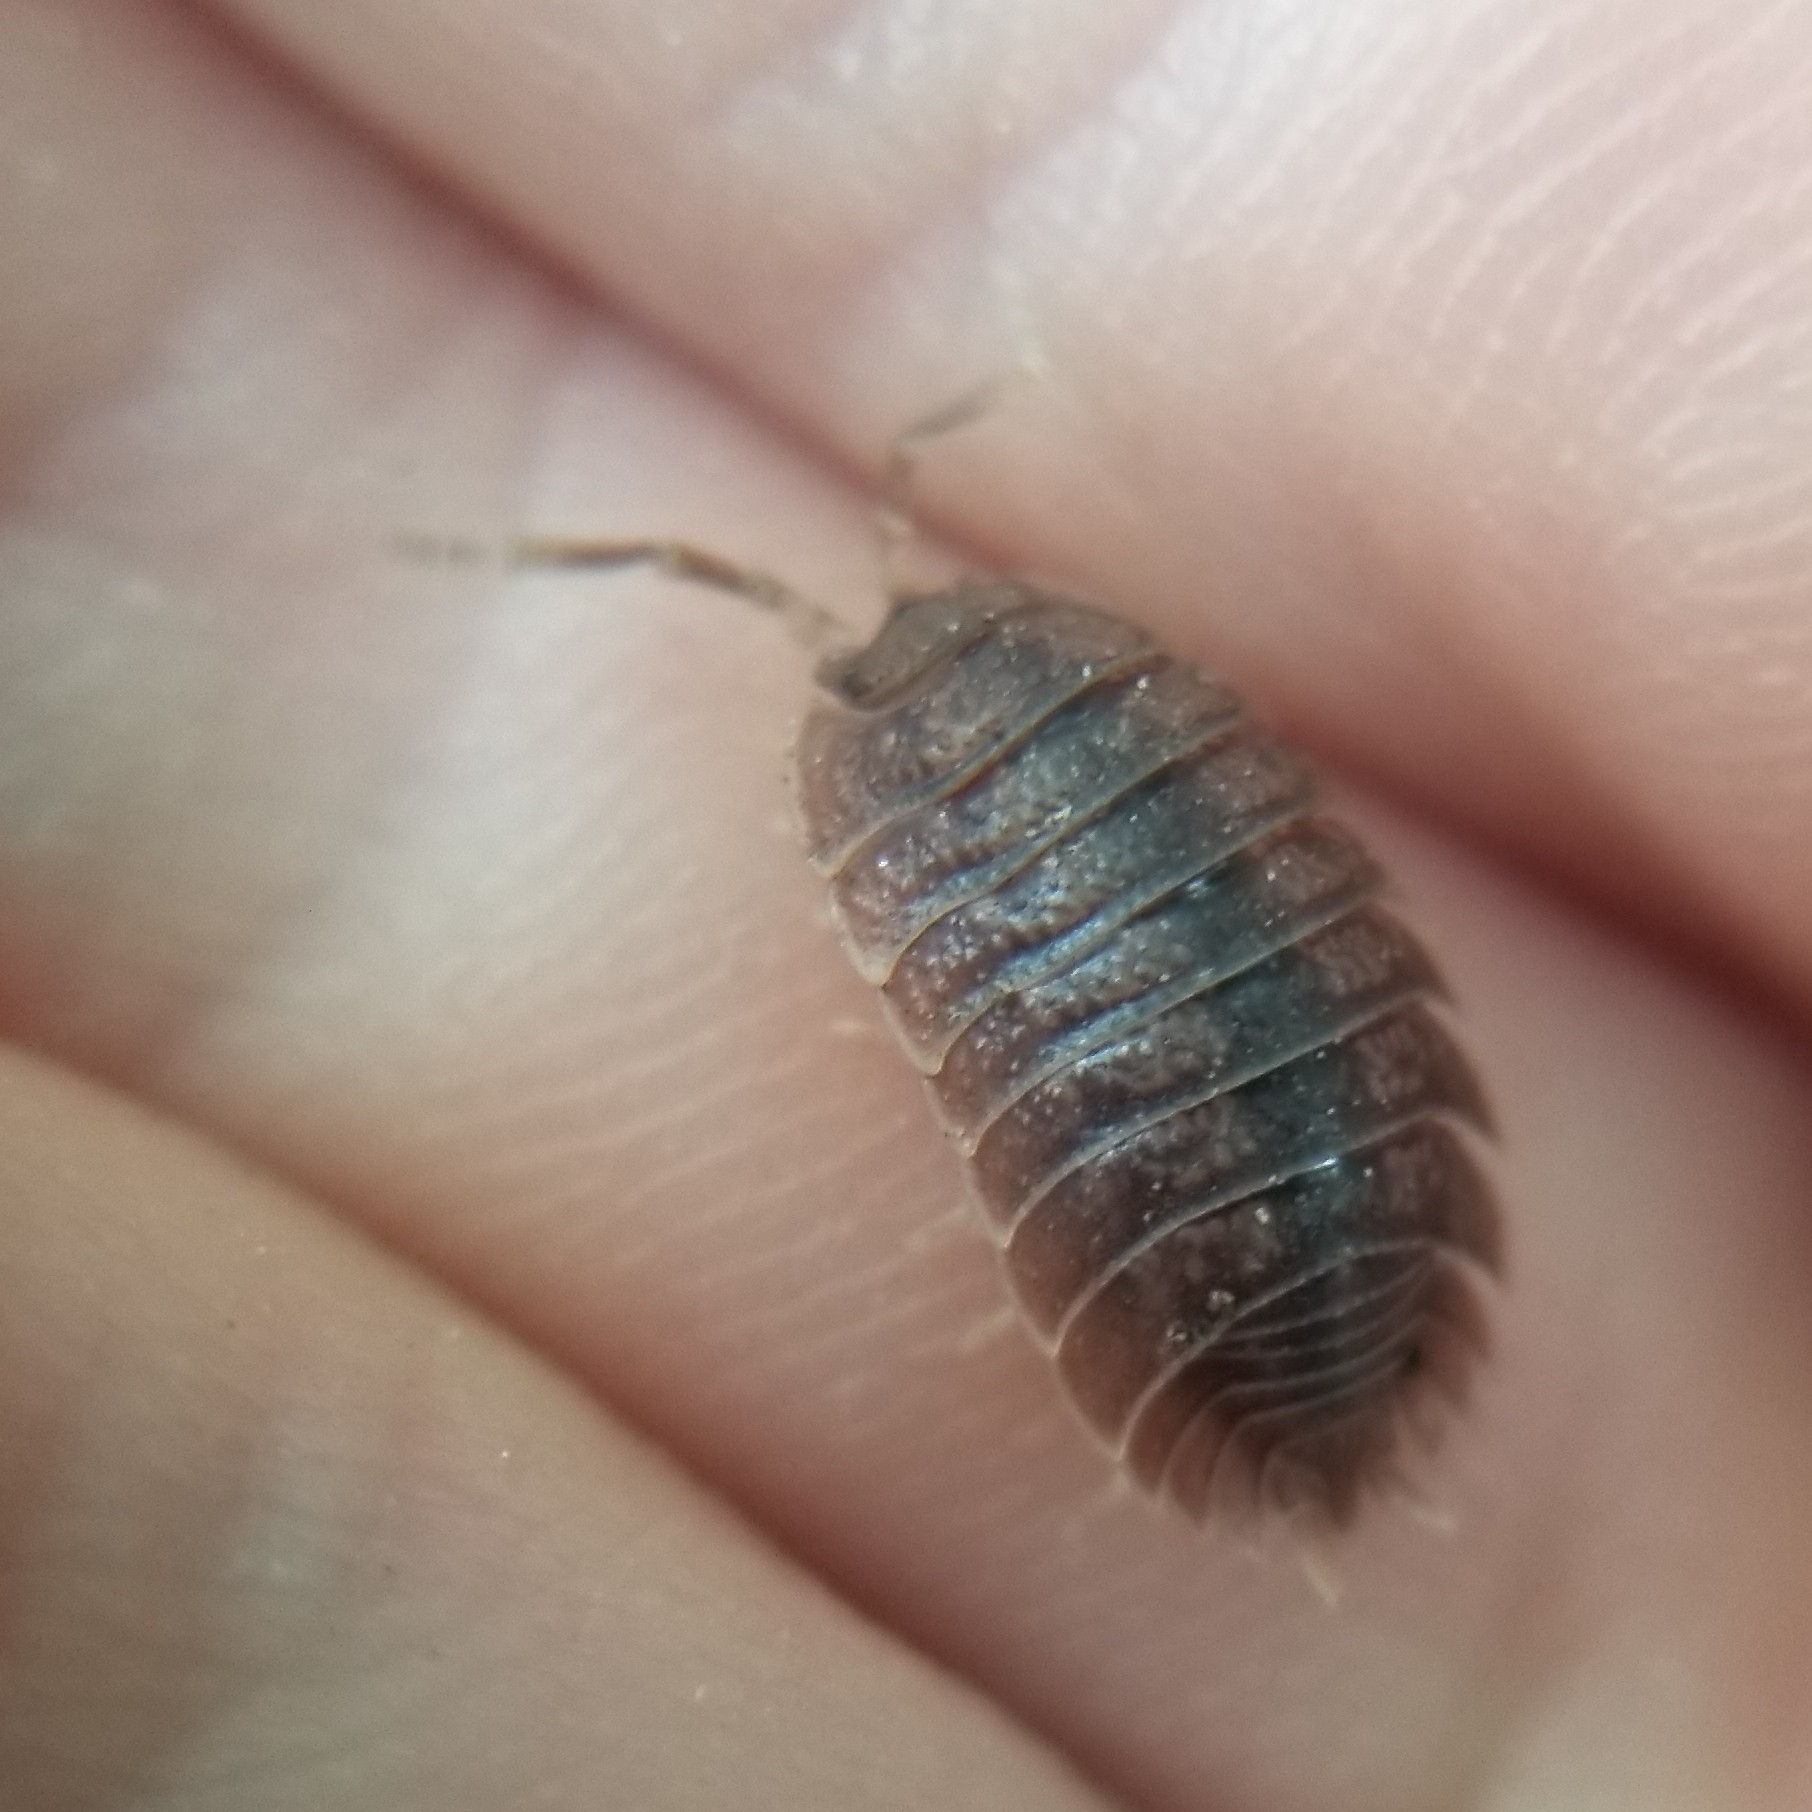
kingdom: Animalia
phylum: Arthropoda
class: Malacostraca
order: Isopoda
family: Porcellionidae
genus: Porcellio
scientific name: Porcellio dilatatus
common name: Isopod
